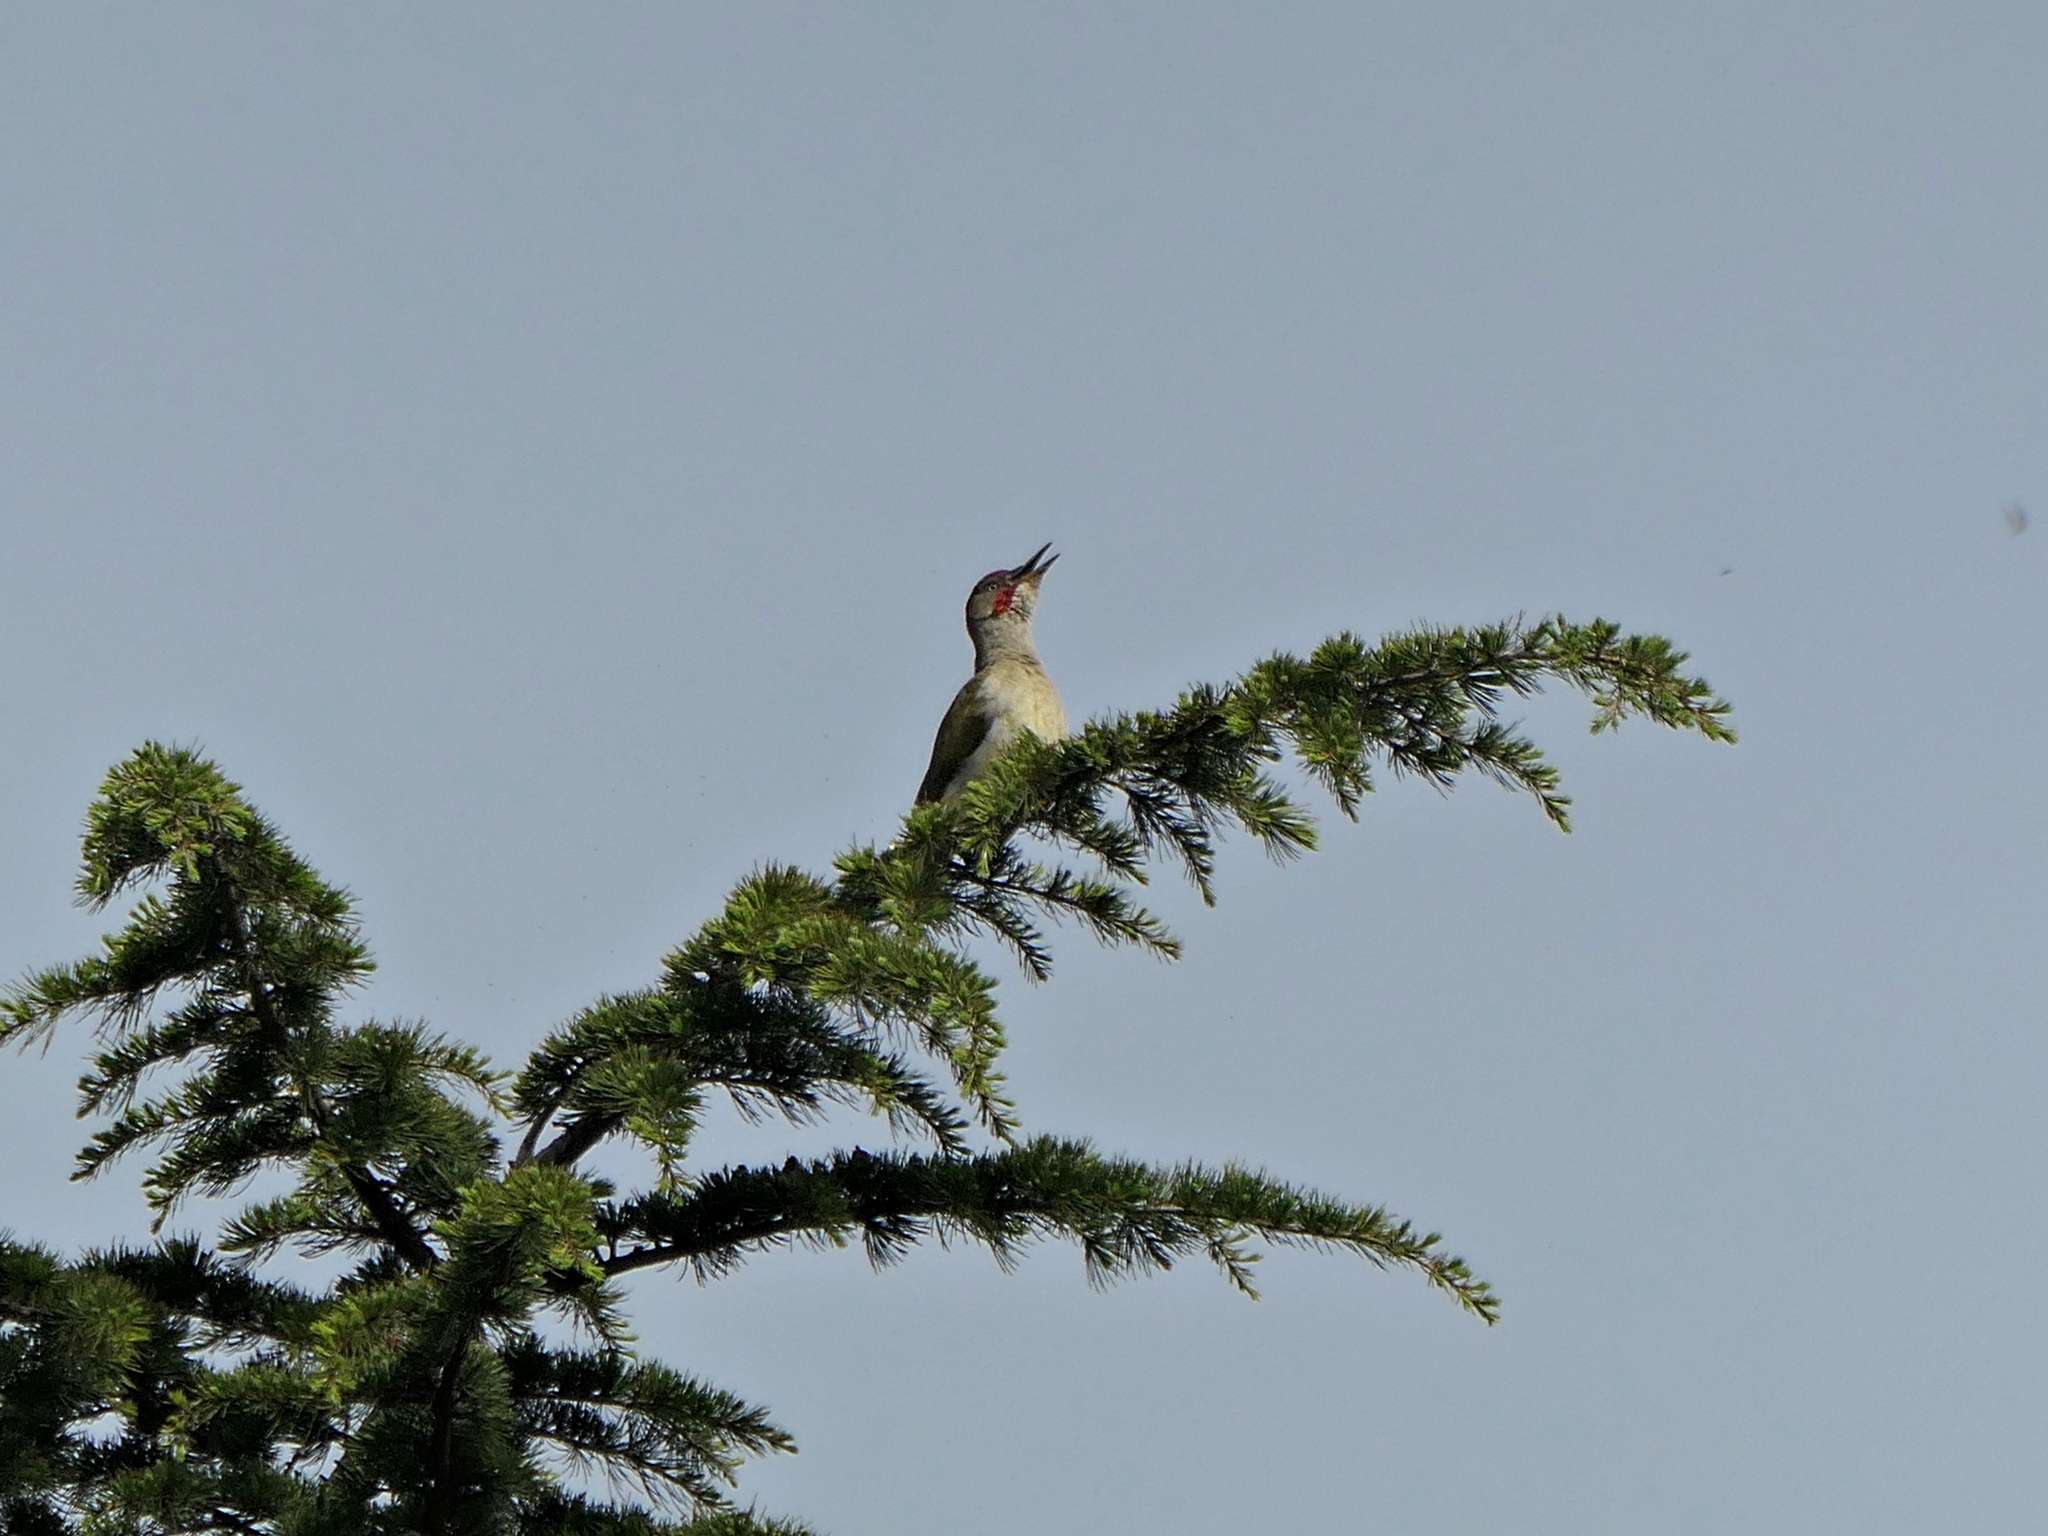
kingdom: Animalia
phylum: Chordata
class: Aves
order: Piciformes
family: Picidae
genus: Picus
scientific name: Picus sharpei
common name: Iberian green woodpecker
